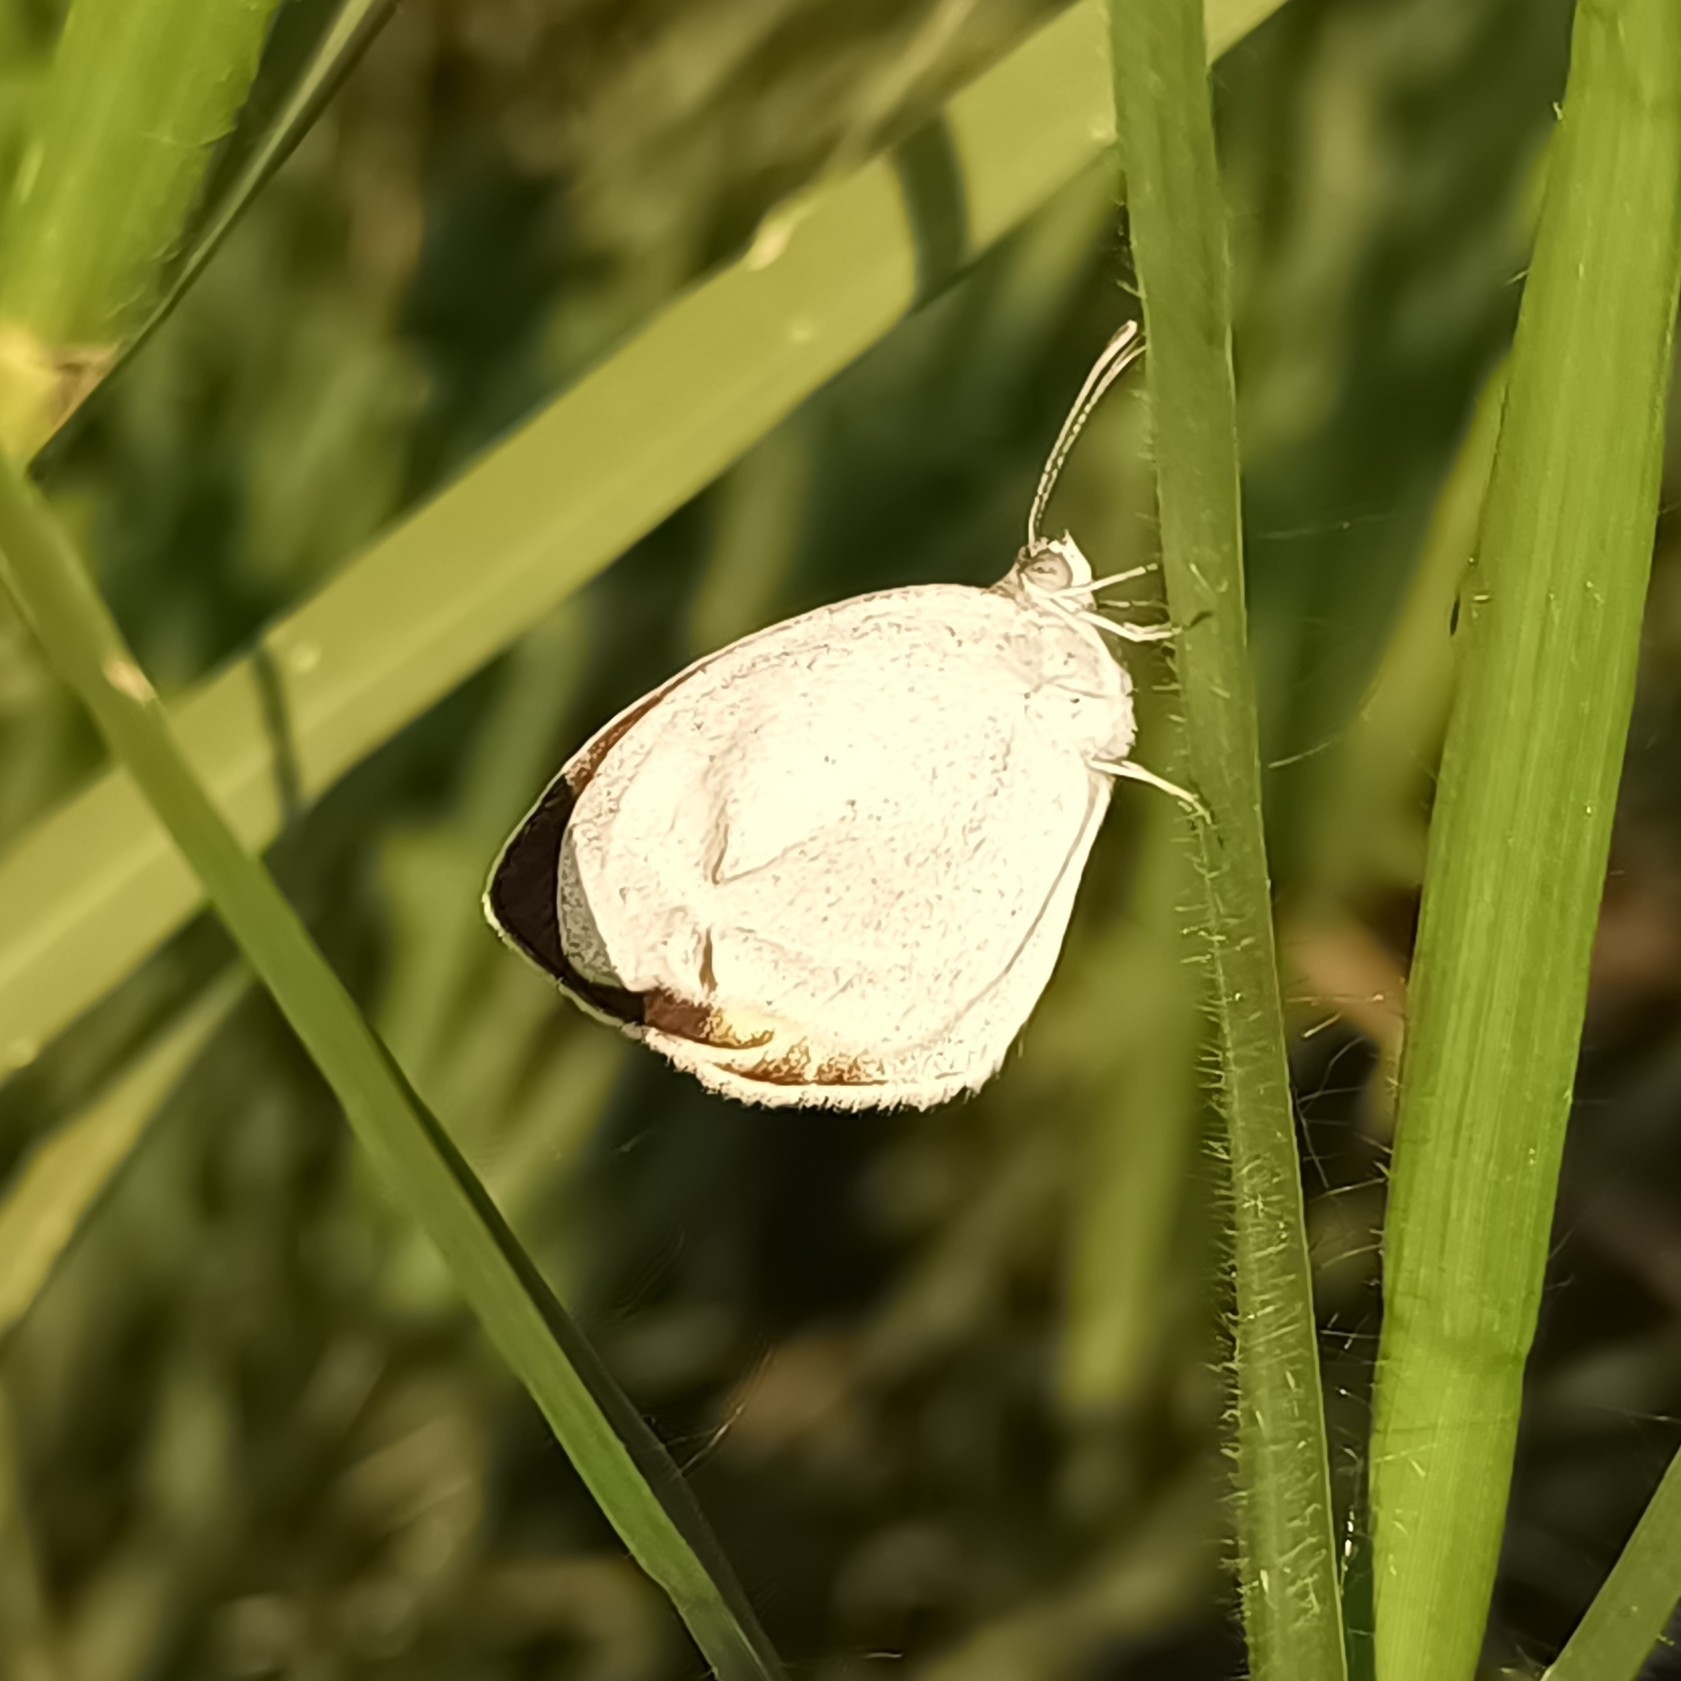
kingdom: Animalia
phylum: Arthropoda
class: Insecta
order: Lepidoptera
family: Pieridae
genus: Eurema
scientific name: Eurema daira
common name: Barred sulphur
